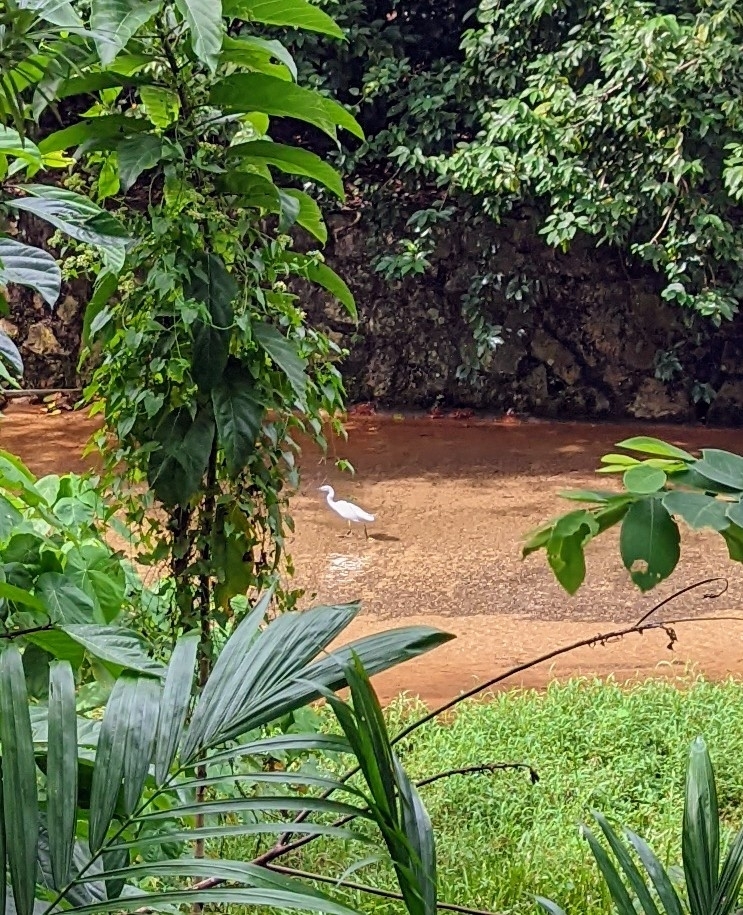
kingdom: Animalia
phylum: Chordata
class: Aves
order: Pelecaniformes
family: Ardeidae
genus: Egretta
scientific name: Egretta garzetta
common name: Little egret
